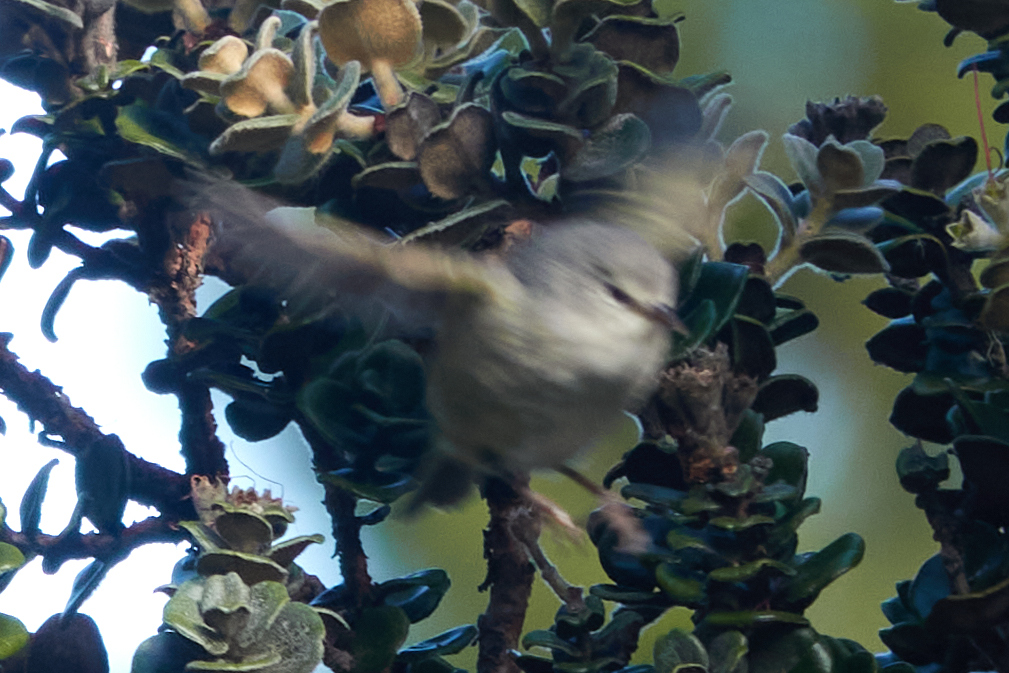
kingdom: Animalia
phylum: Chordata
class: Aves
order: Passeriformes
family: Fringillidae
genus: Paroreomyza
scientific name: Paroreomyza montana
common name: Maui alauahio
